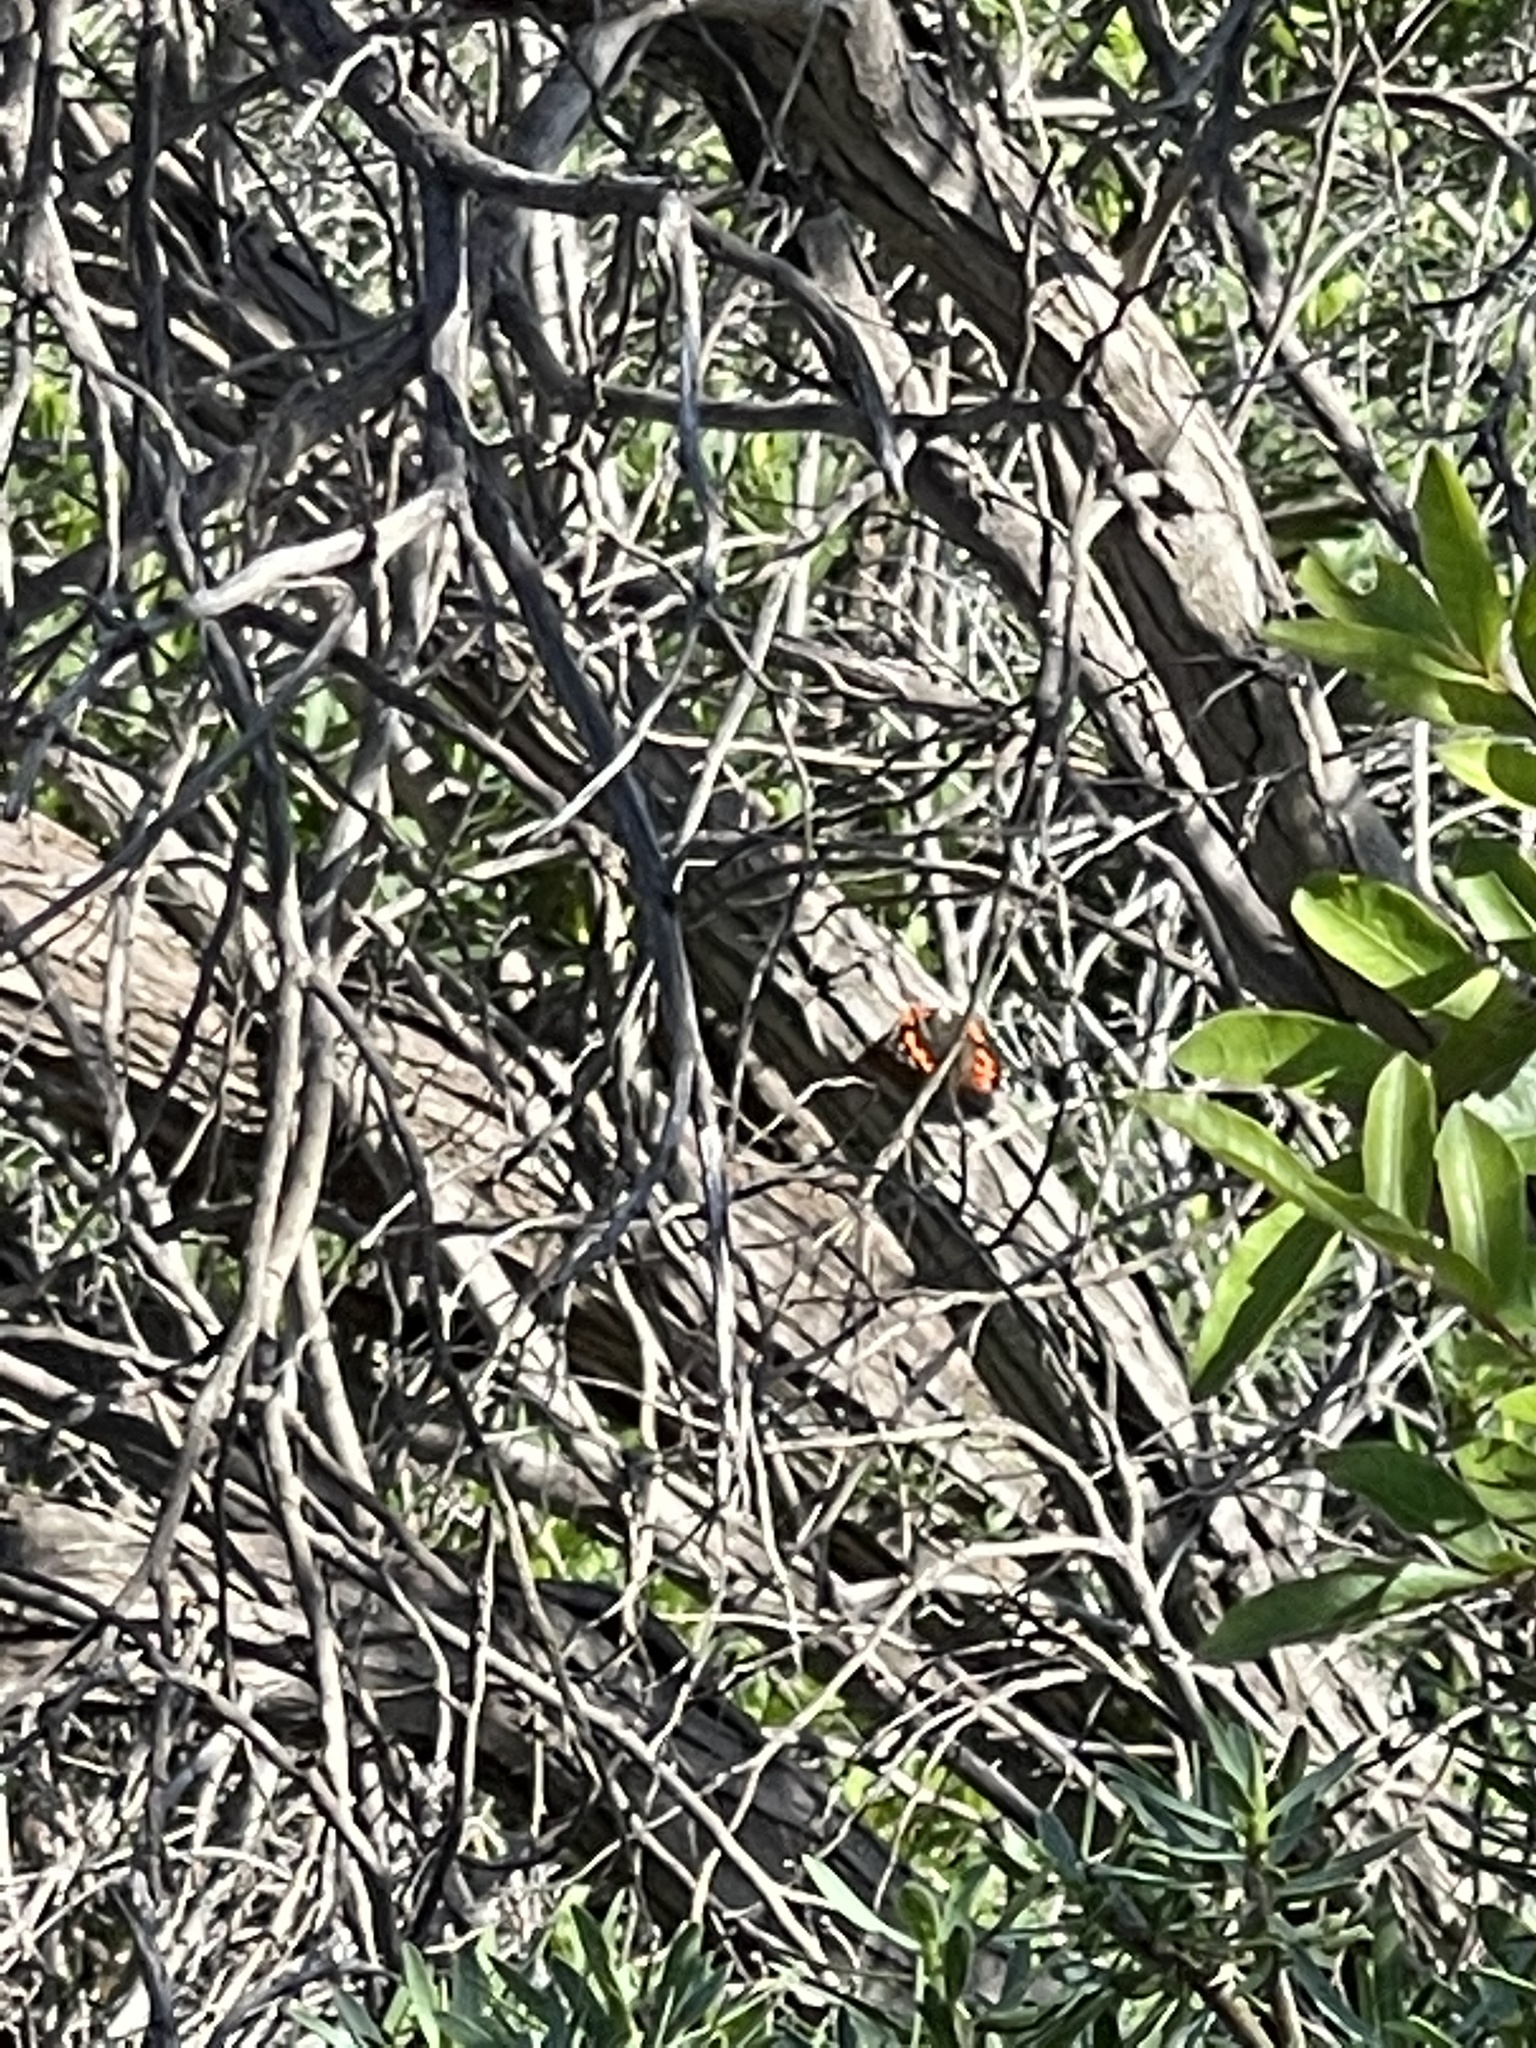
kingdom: Animalia
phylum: Arthropoda
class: Insecta
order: Lepidoptera
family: Nymphalidae
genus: Vanessa
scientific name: Vanessa vulcania
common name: Canary red admiral
